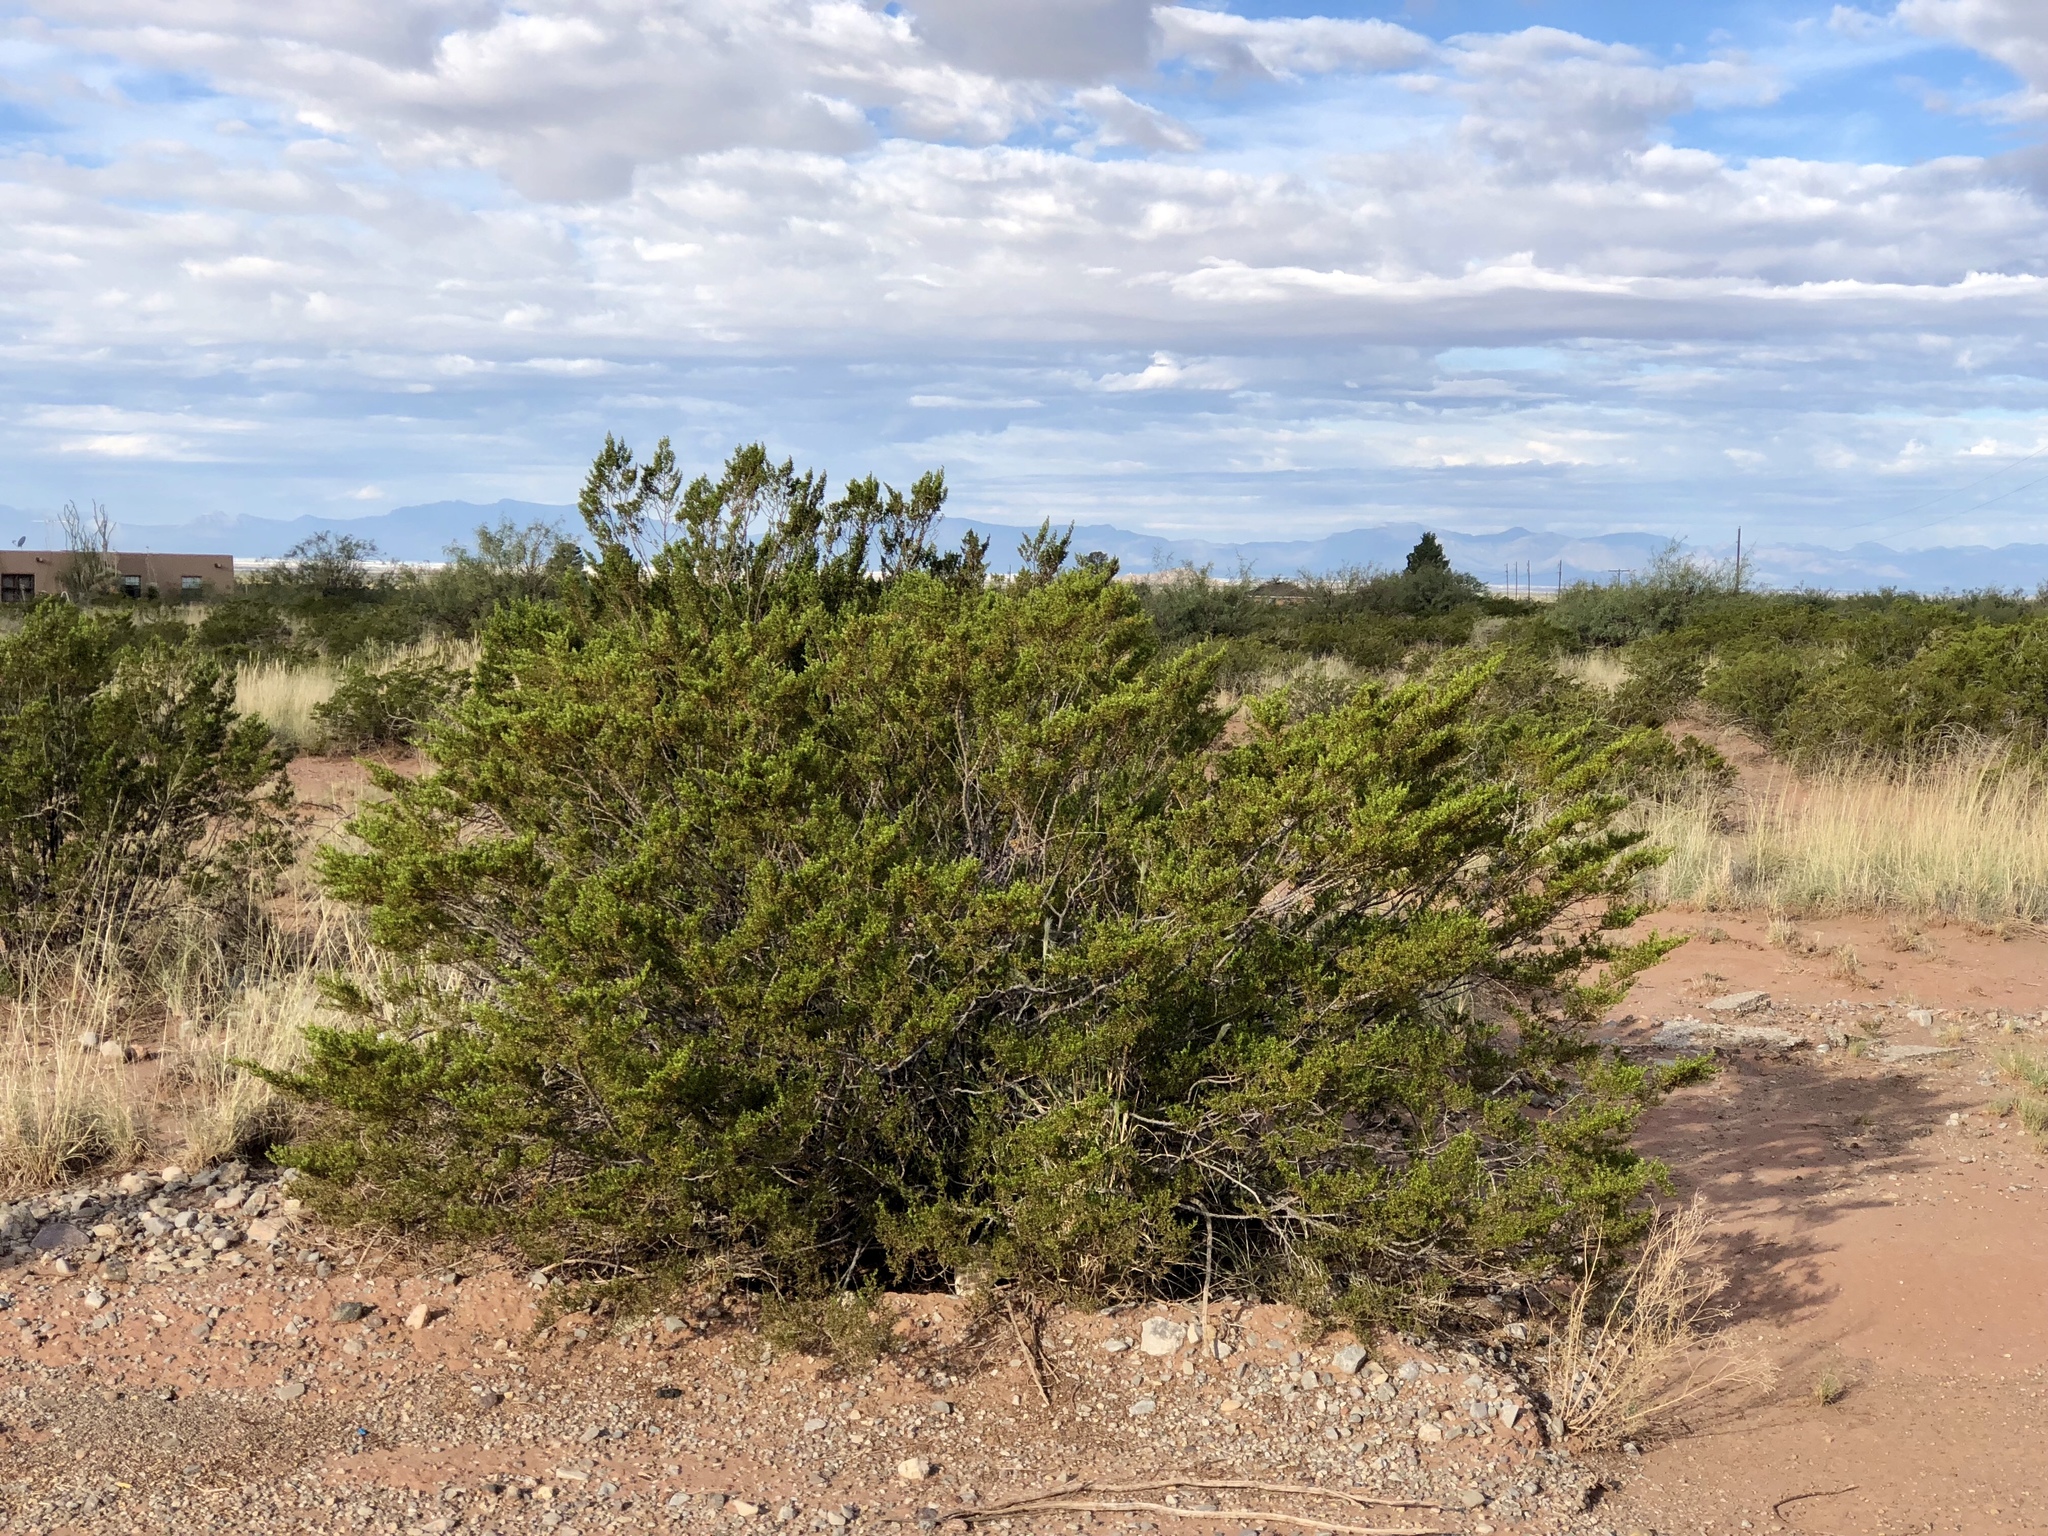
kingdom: Plantae
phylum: Tracheophyta
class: Magnoliopsida
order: Zygophyllales
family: Zygophyllaceae
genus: Larrea
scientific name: Larrea tridentata
